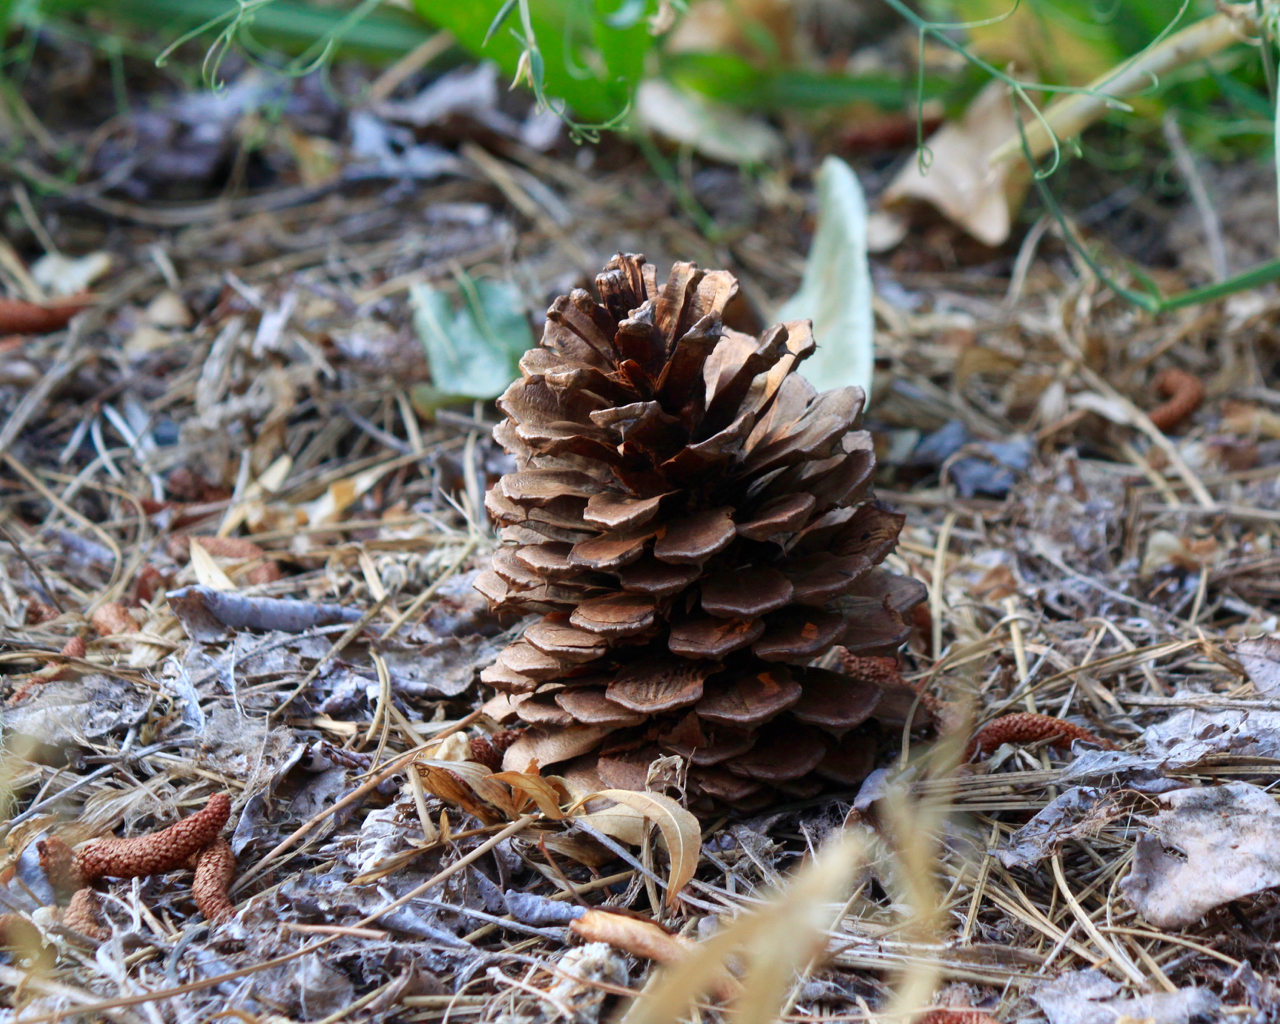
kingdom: Plantae
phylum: Tracheophyta
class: Pinopsida
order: Pinales
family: Pinaceae
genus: Pinus
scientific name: Pinus ponderosa
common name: Western yellow-pine
